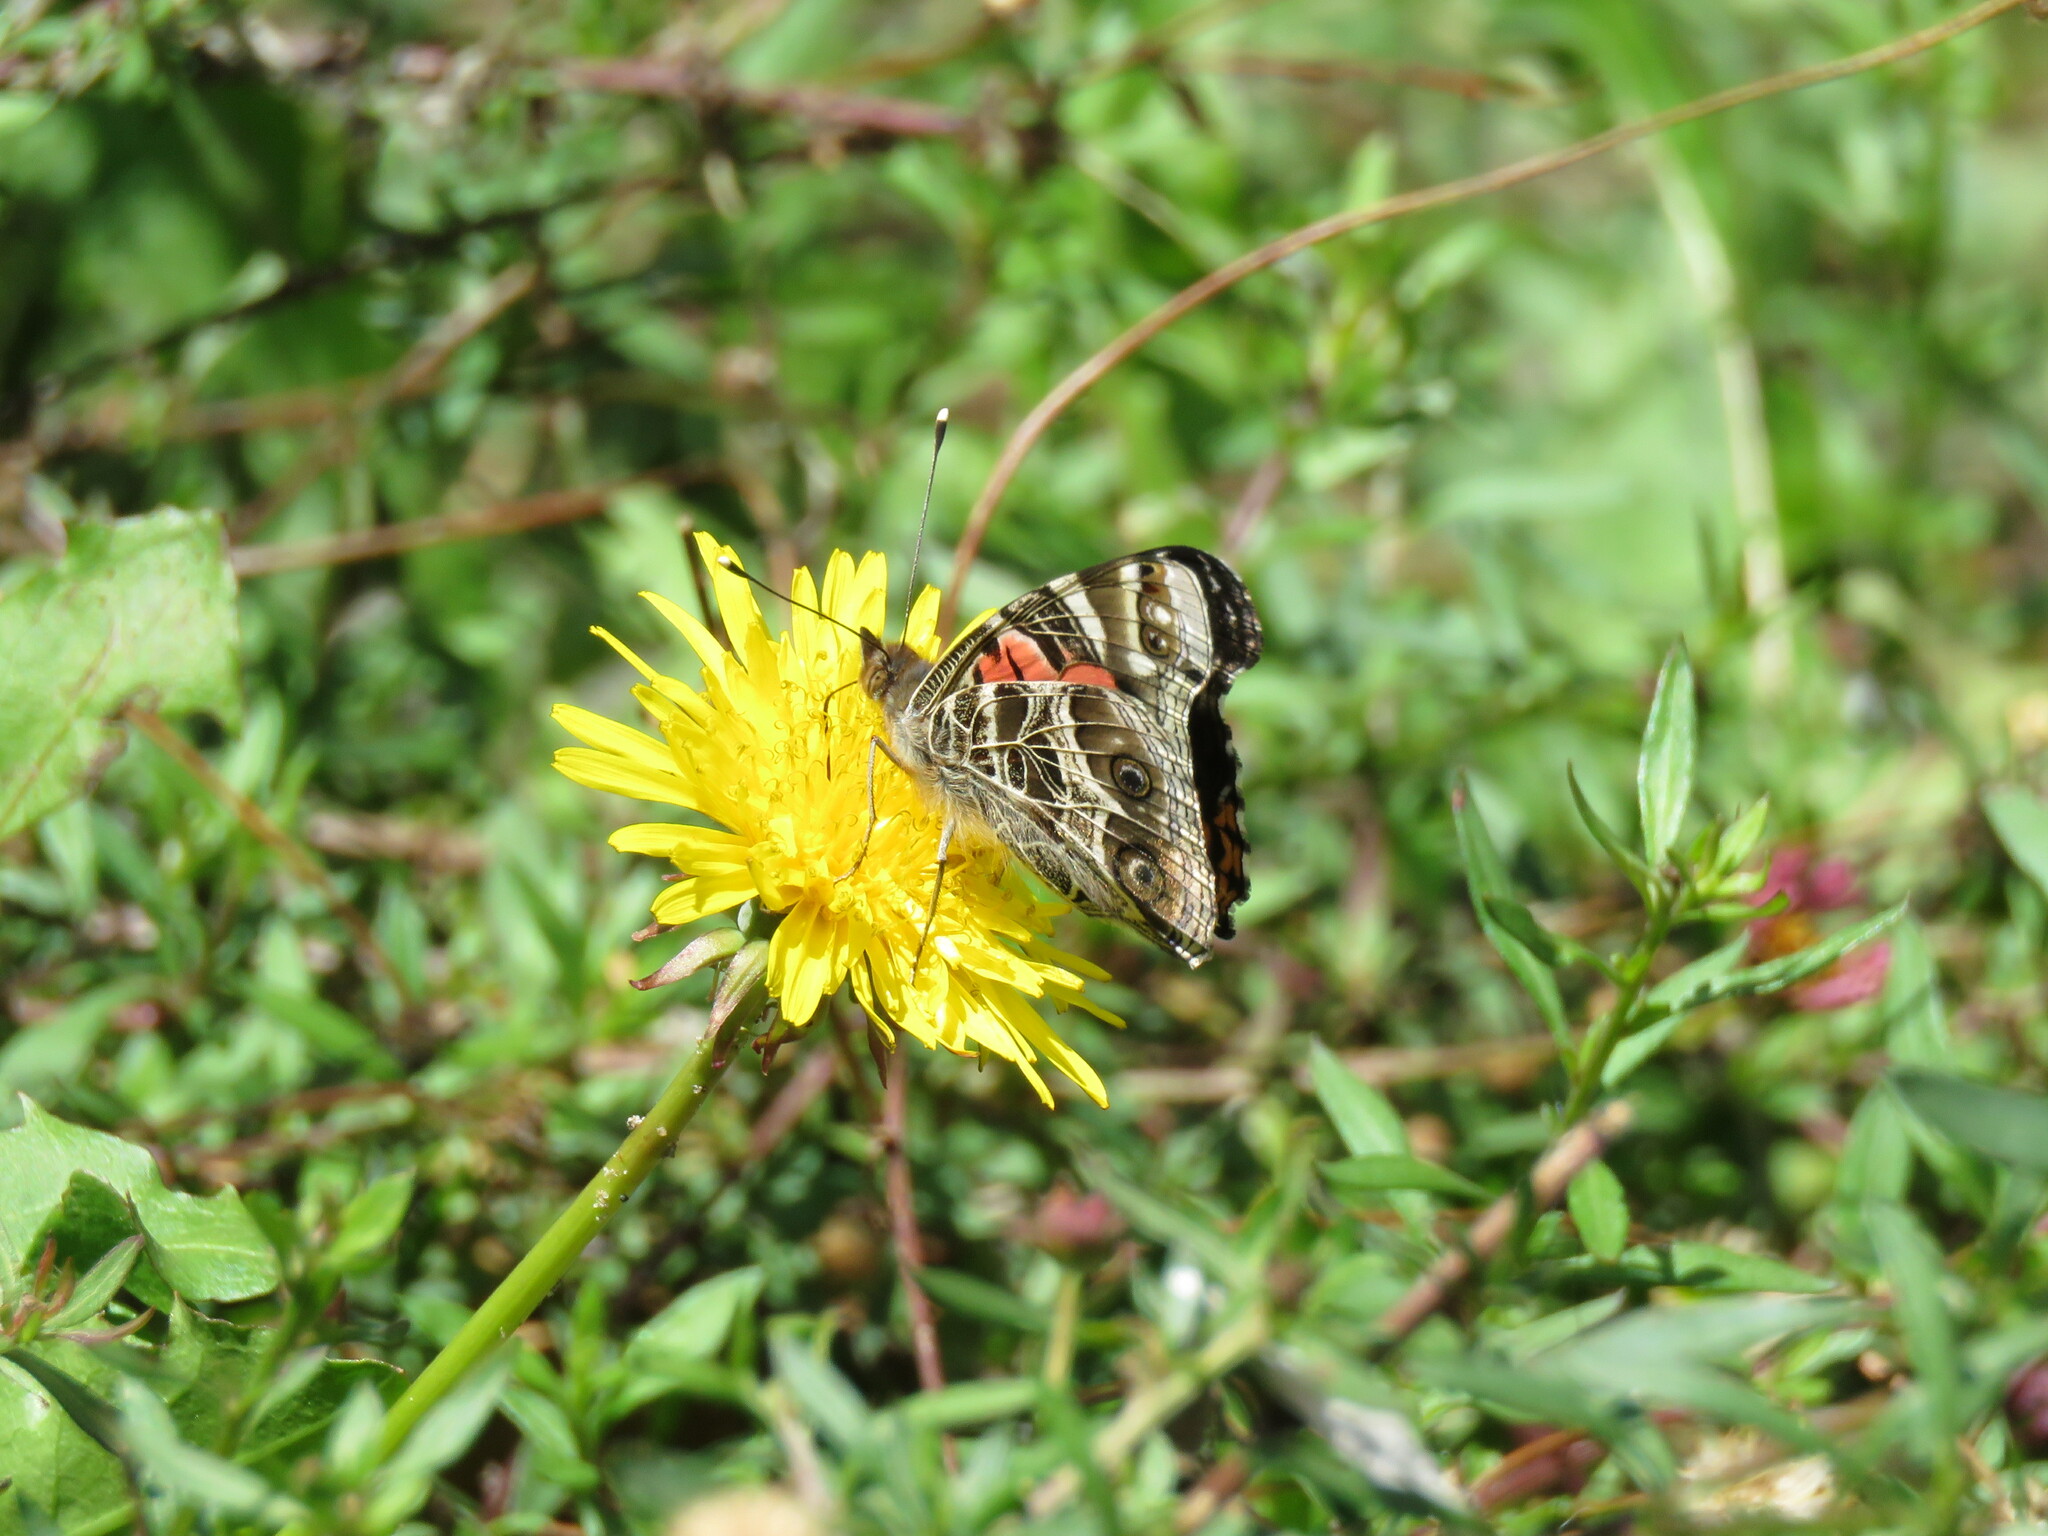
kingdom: Animalia
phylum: Arthropoda
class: Insecta
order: Lepidoptera
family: Nymphalidae
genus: Vanessa
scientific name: Vanessa virginiensis
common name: American lady
